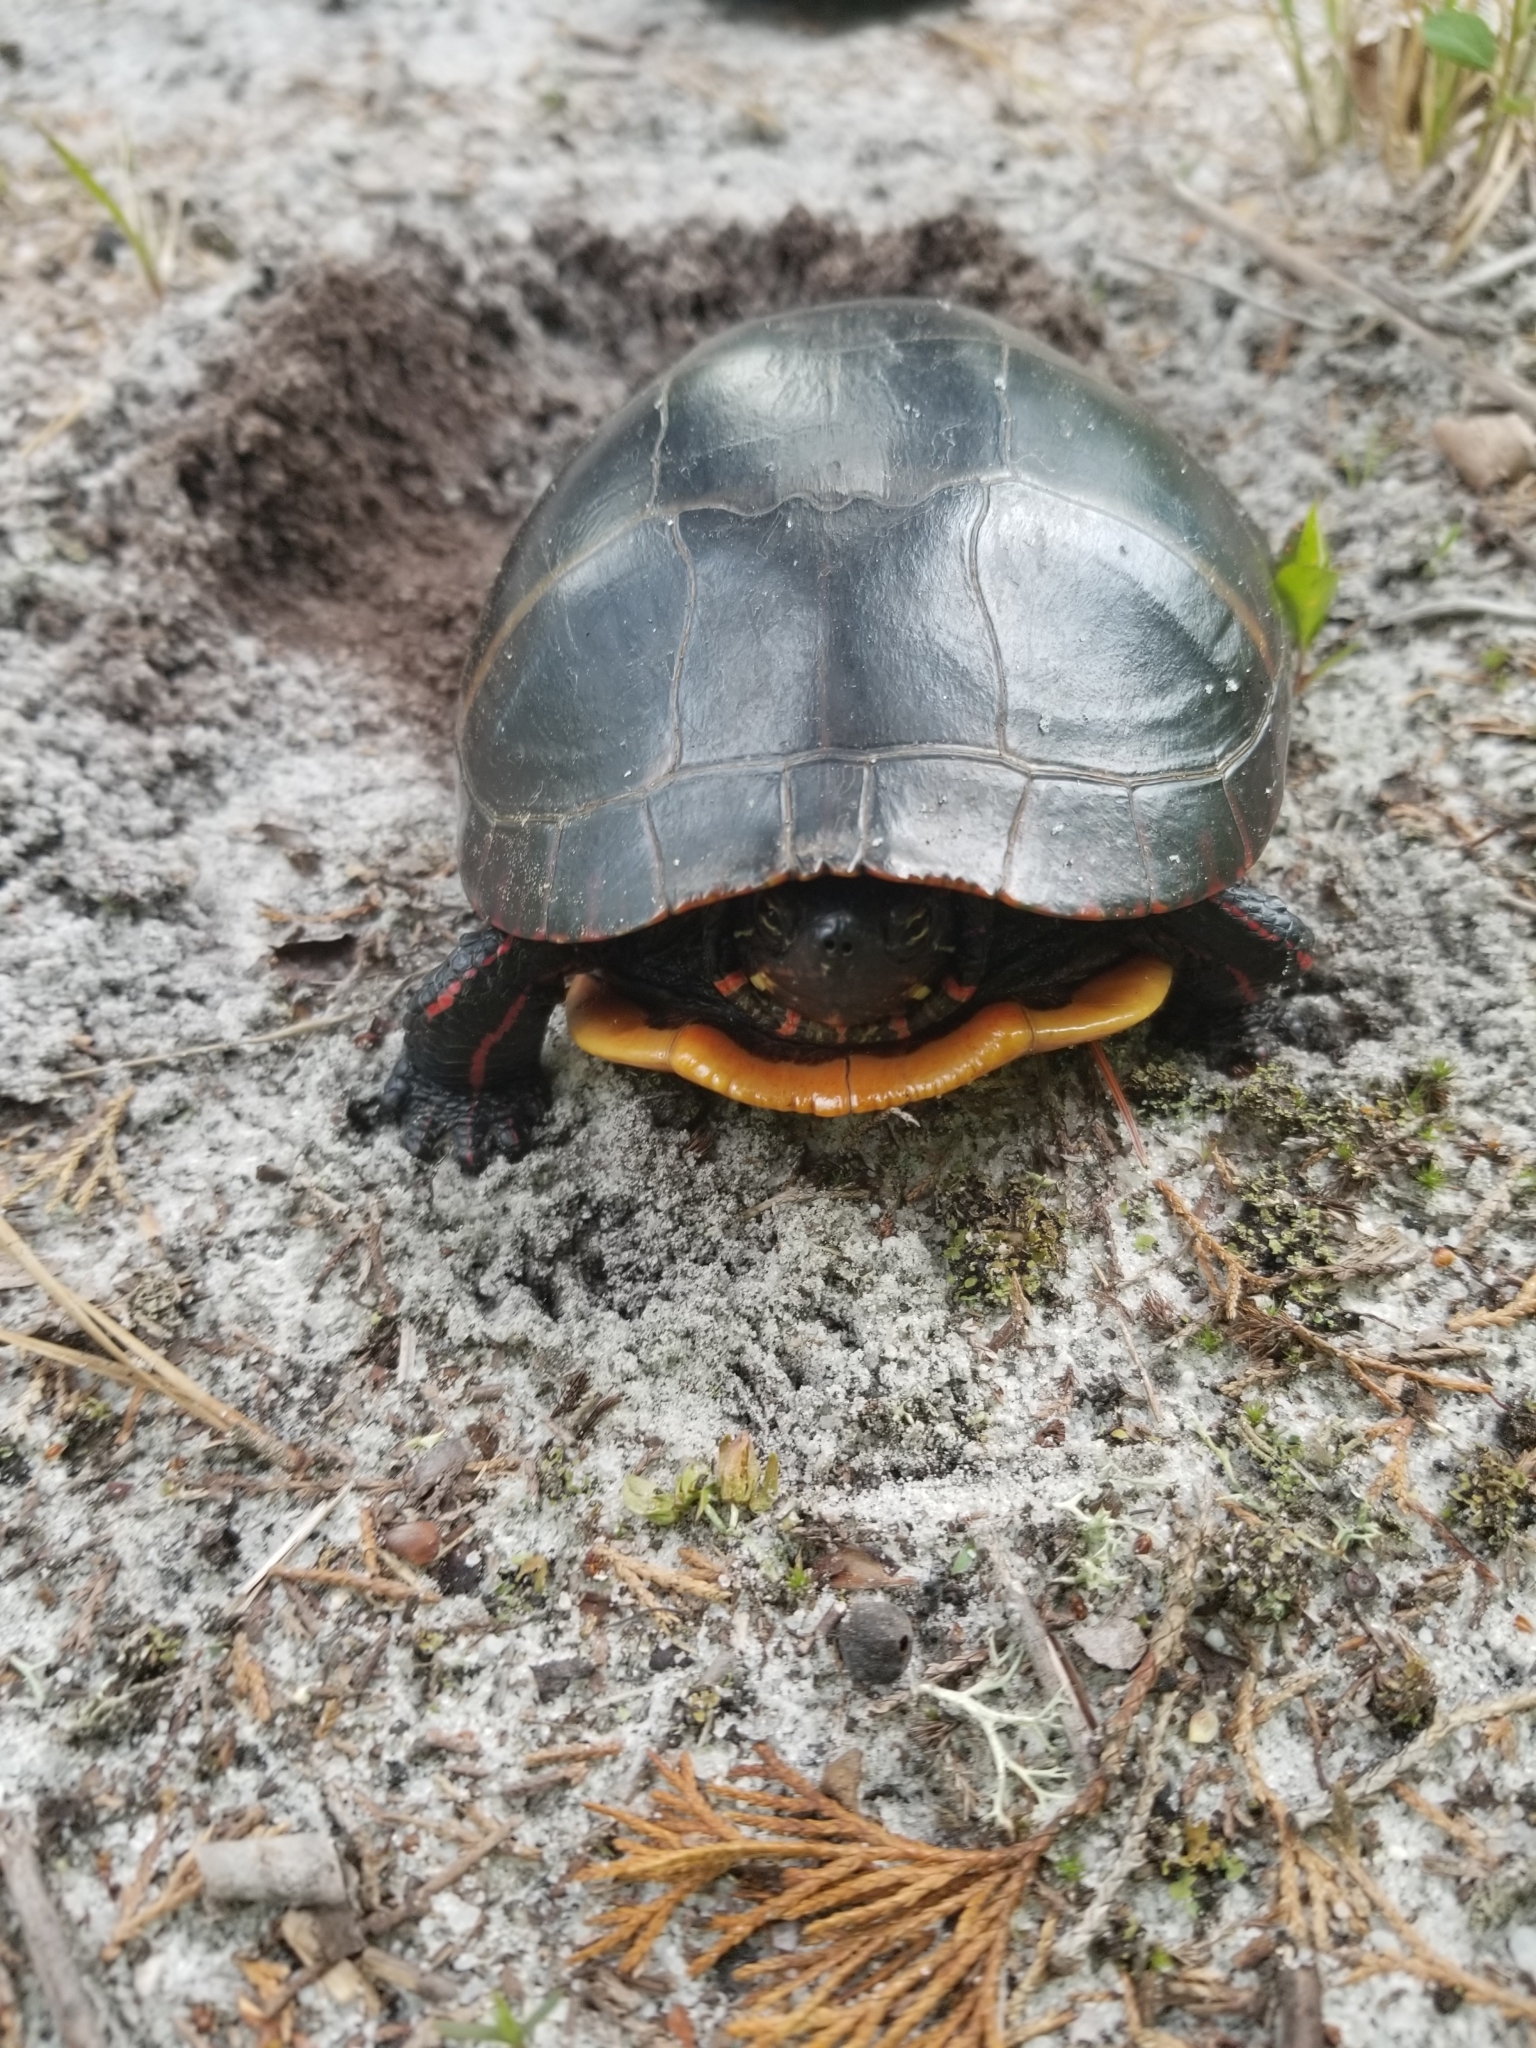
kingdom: Animalia
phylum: Chordata
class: Testudines
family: Emydidae
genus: Chrysemys
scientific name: Chrysemys picta
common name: Painted turtle
